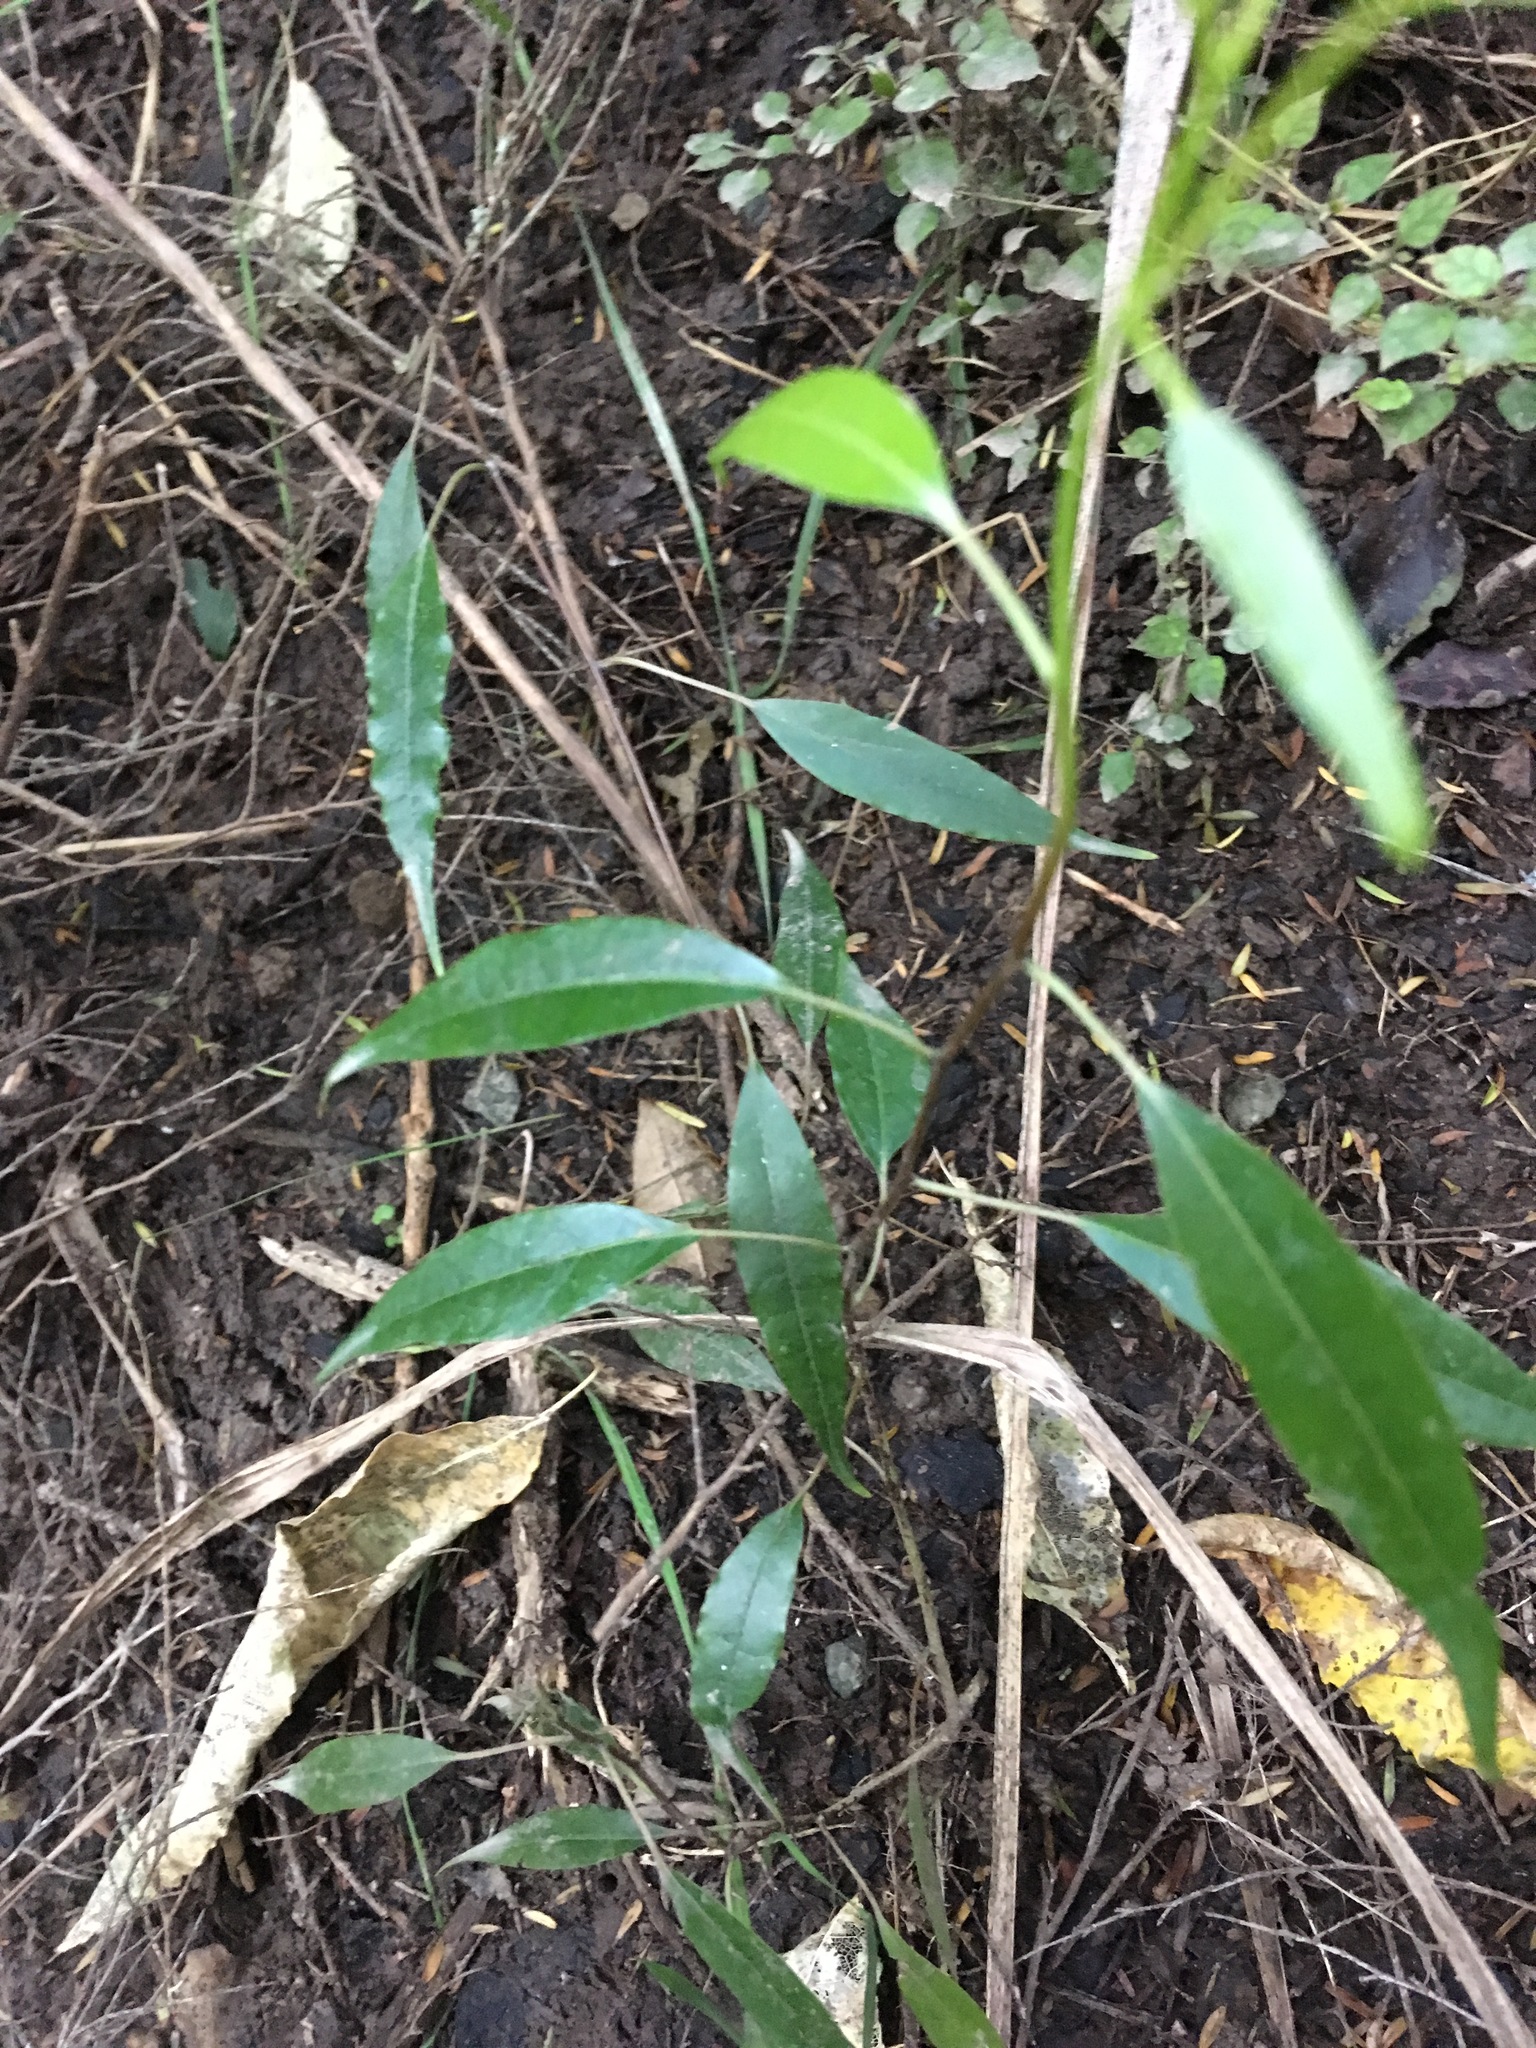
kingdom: Plantae
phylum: Tracheophyta
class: Magnoliopsida
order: Malpighiales
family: Passifloraceae
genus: Passiflora
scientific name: Passiflora tetrandra
